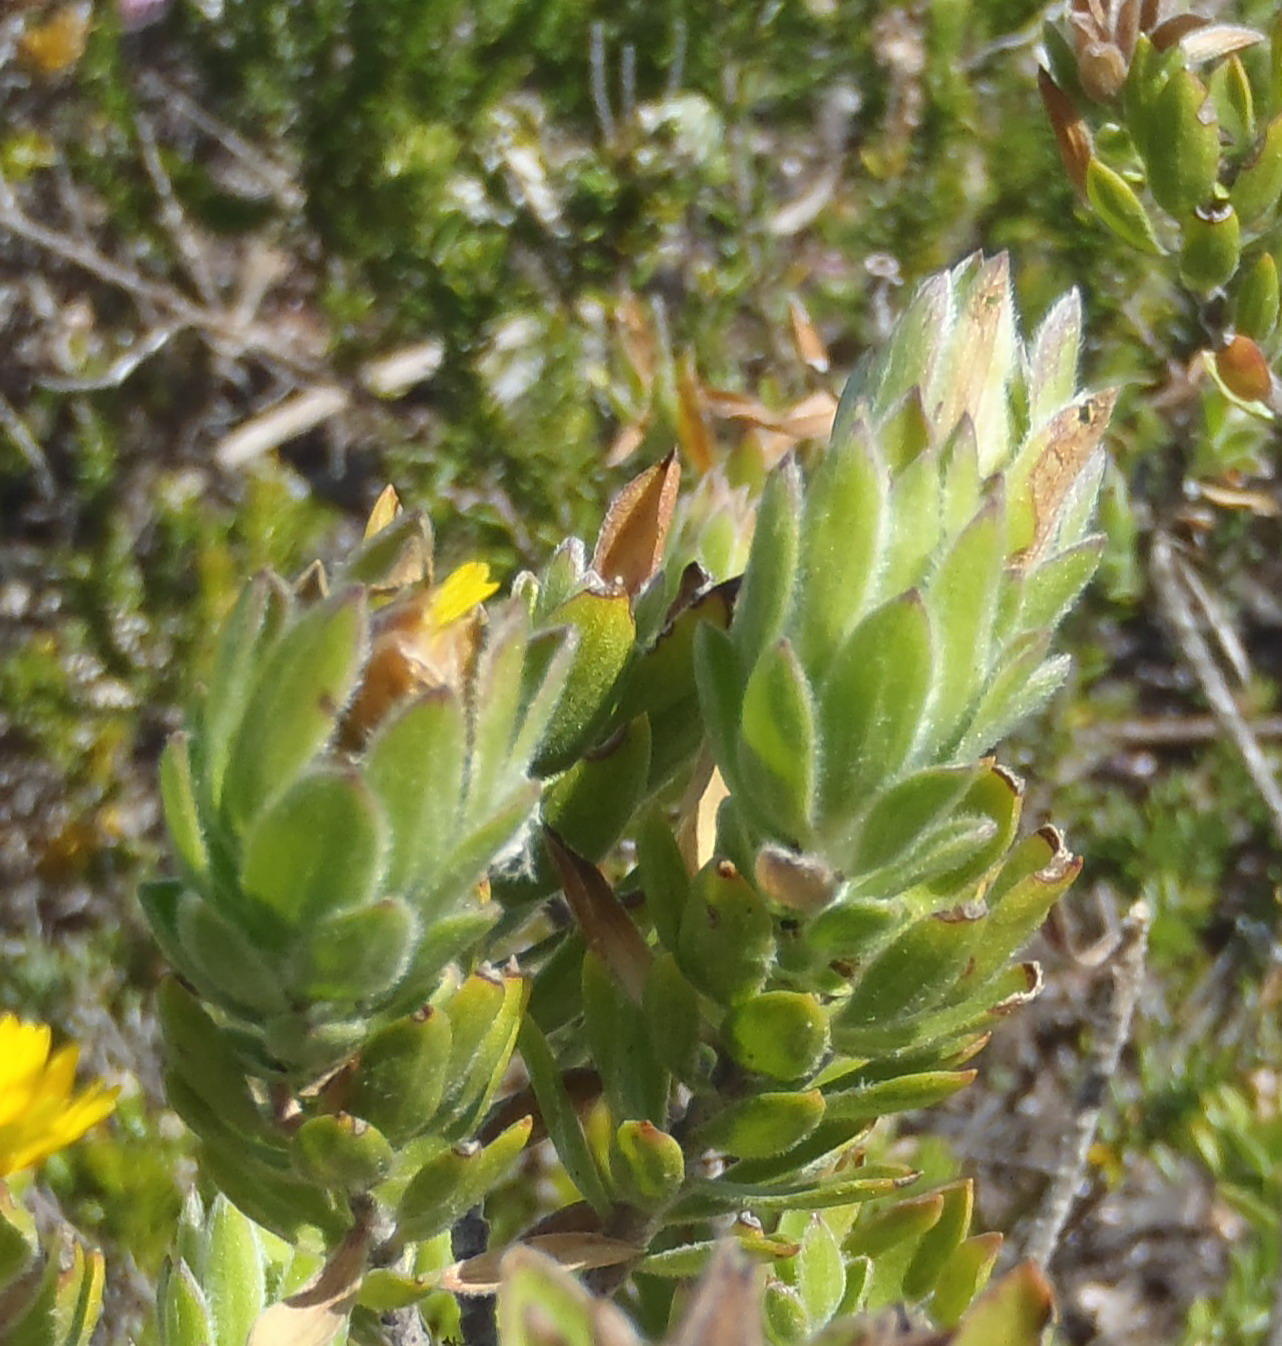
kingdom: Plantae
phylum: Tracheophyta
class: Magnoliopsida
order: Asterales
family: Asteraceae
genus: Oedera
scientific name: Oedera calycina
